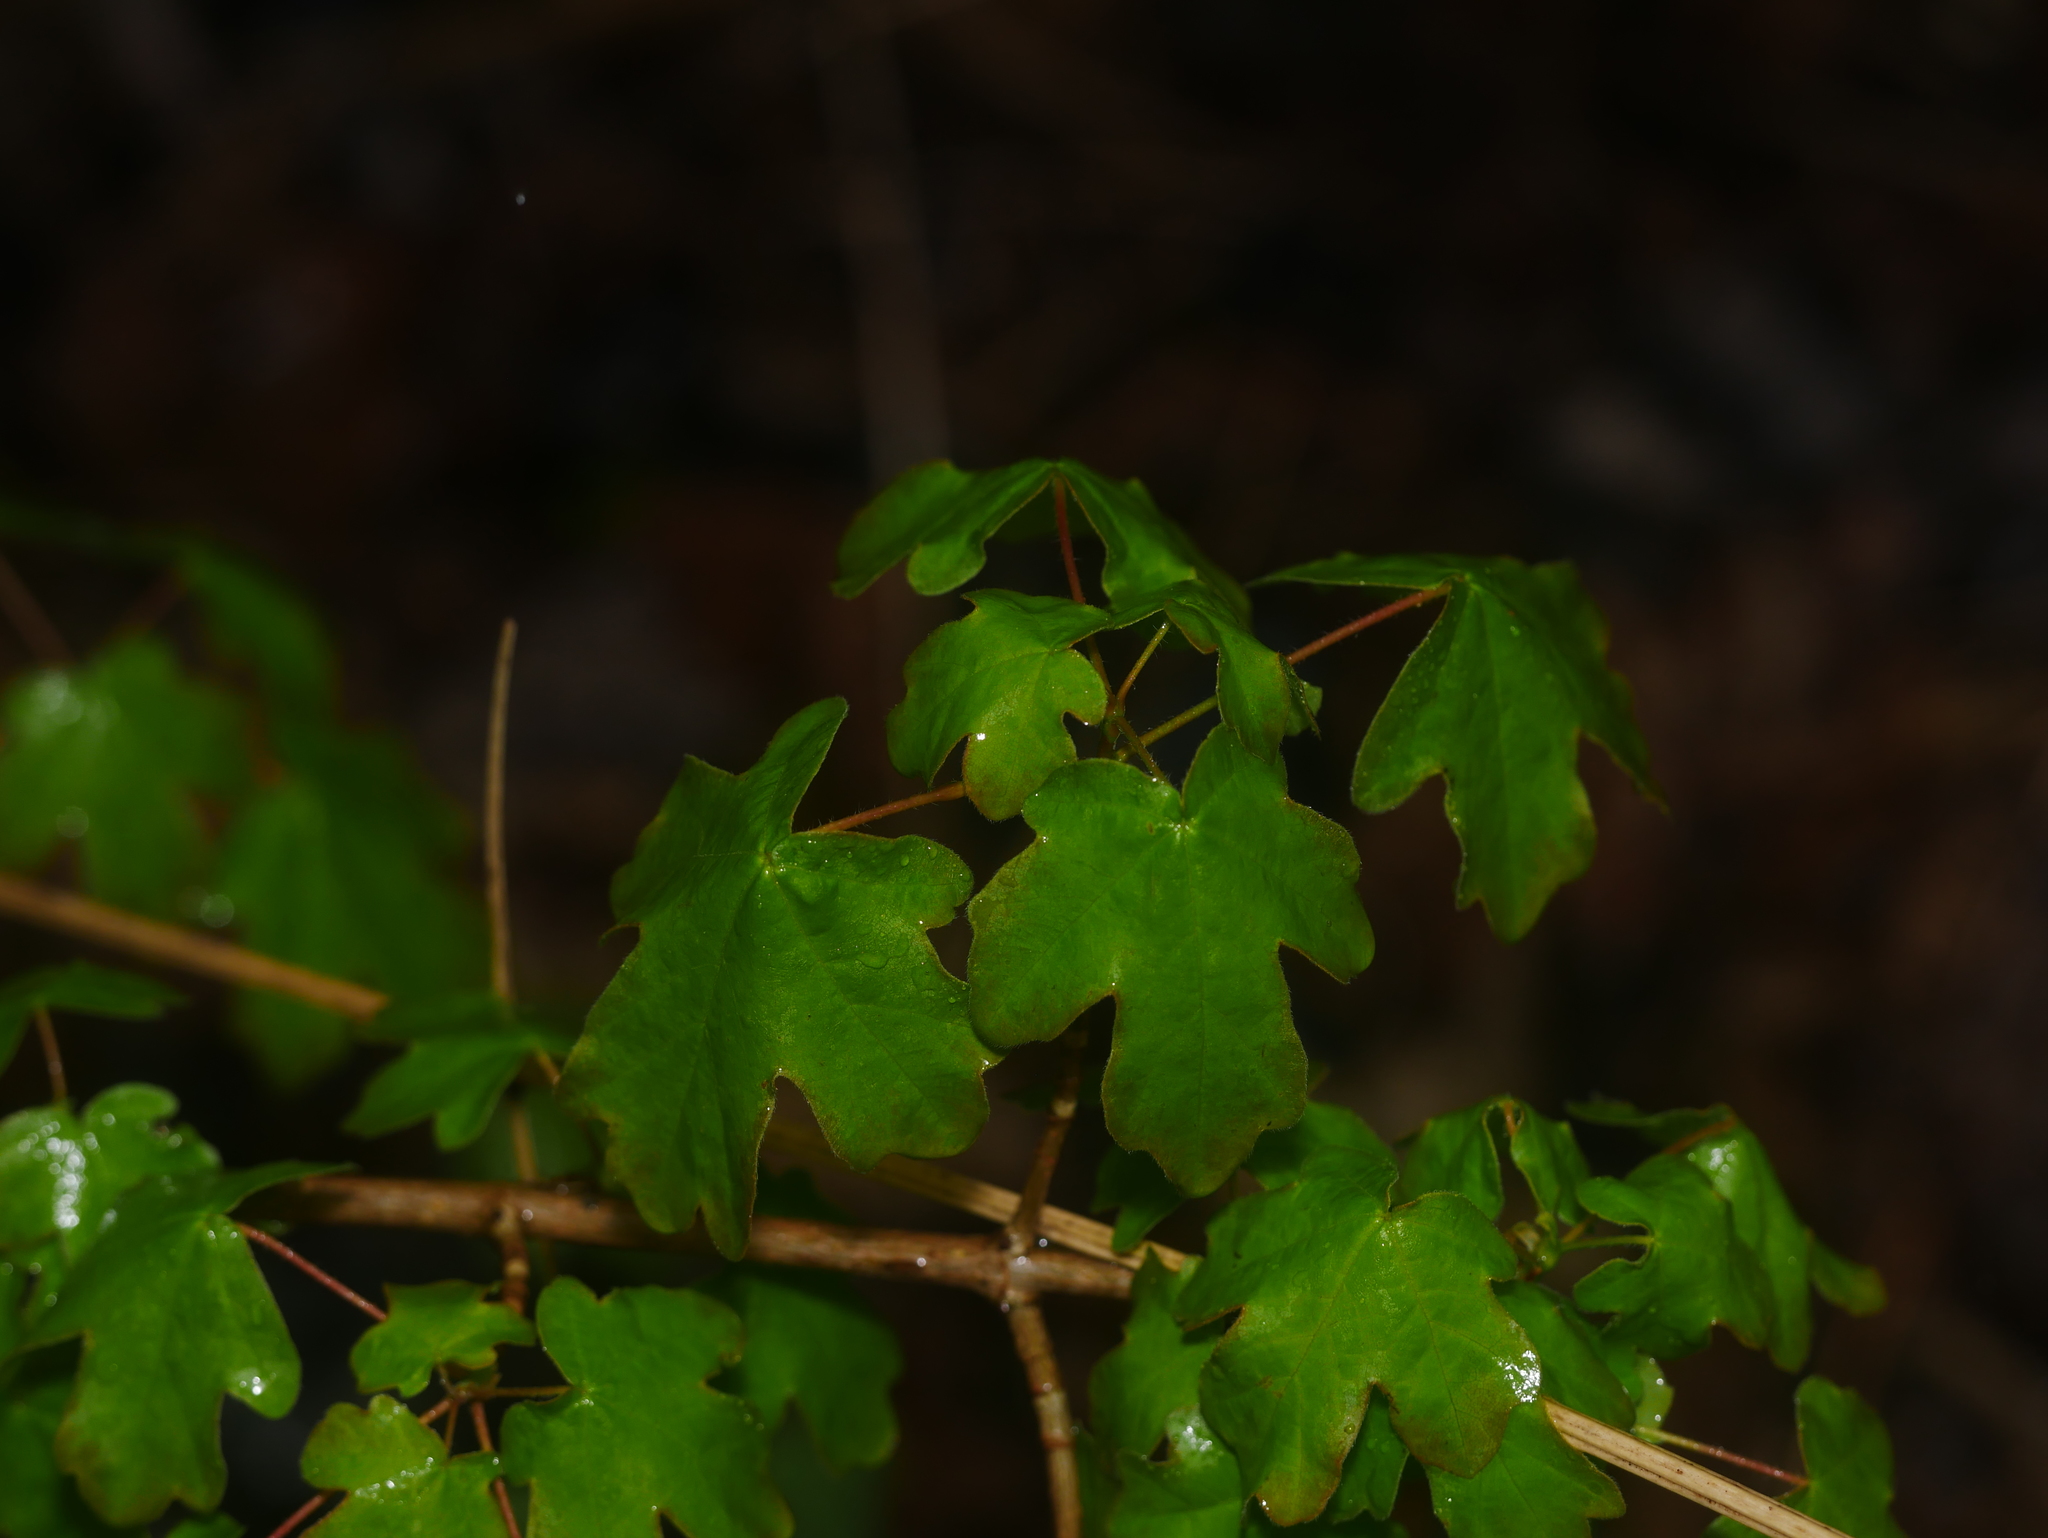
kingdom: Plantae
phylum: Tracheophyta
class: Magnoliopsida
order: Sapindales
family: Sapindaceae
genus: Acer
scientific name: Acer campestre
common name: Field maple
